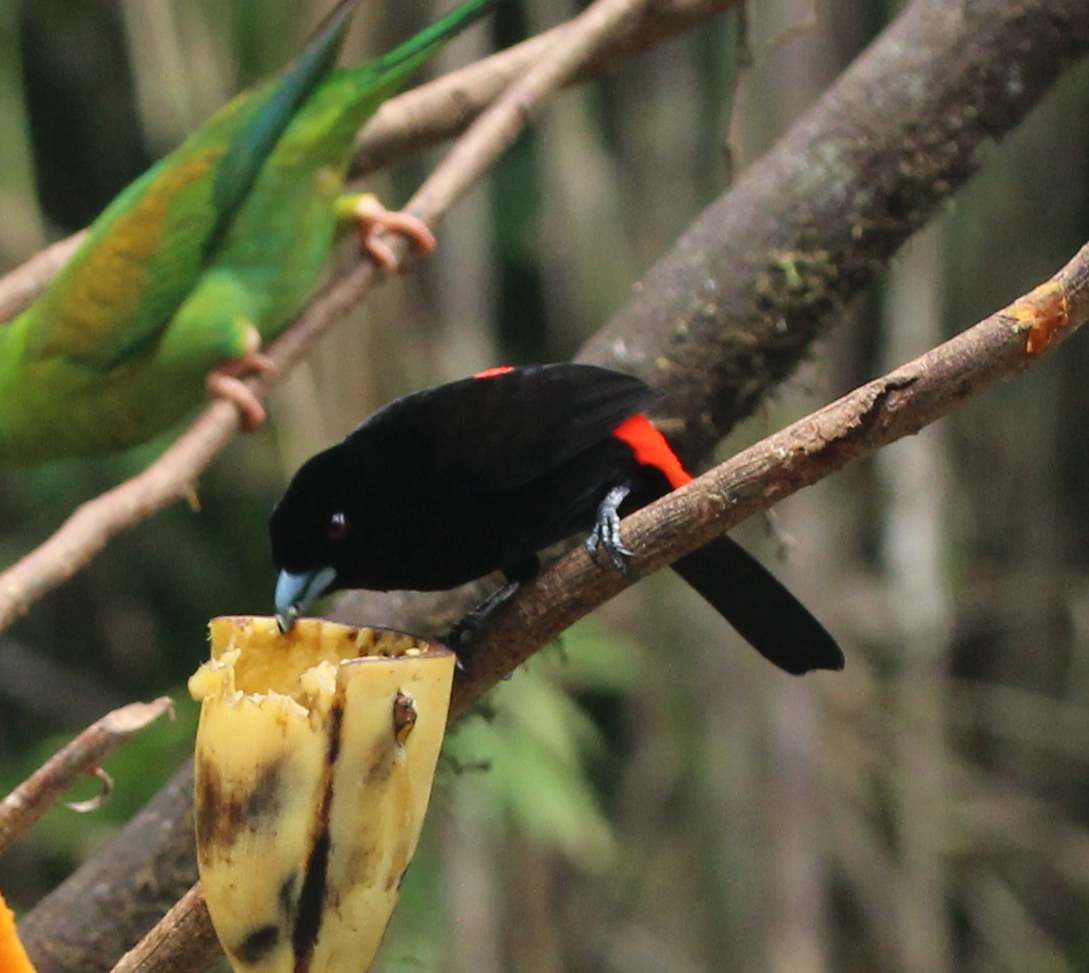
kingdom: Animalia
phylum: Chordata
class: Aves
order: Passeriformes
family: Thraupidae
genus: Ramphocelus
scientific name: Ramphocelus passerinii
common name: Passerini's tanager
